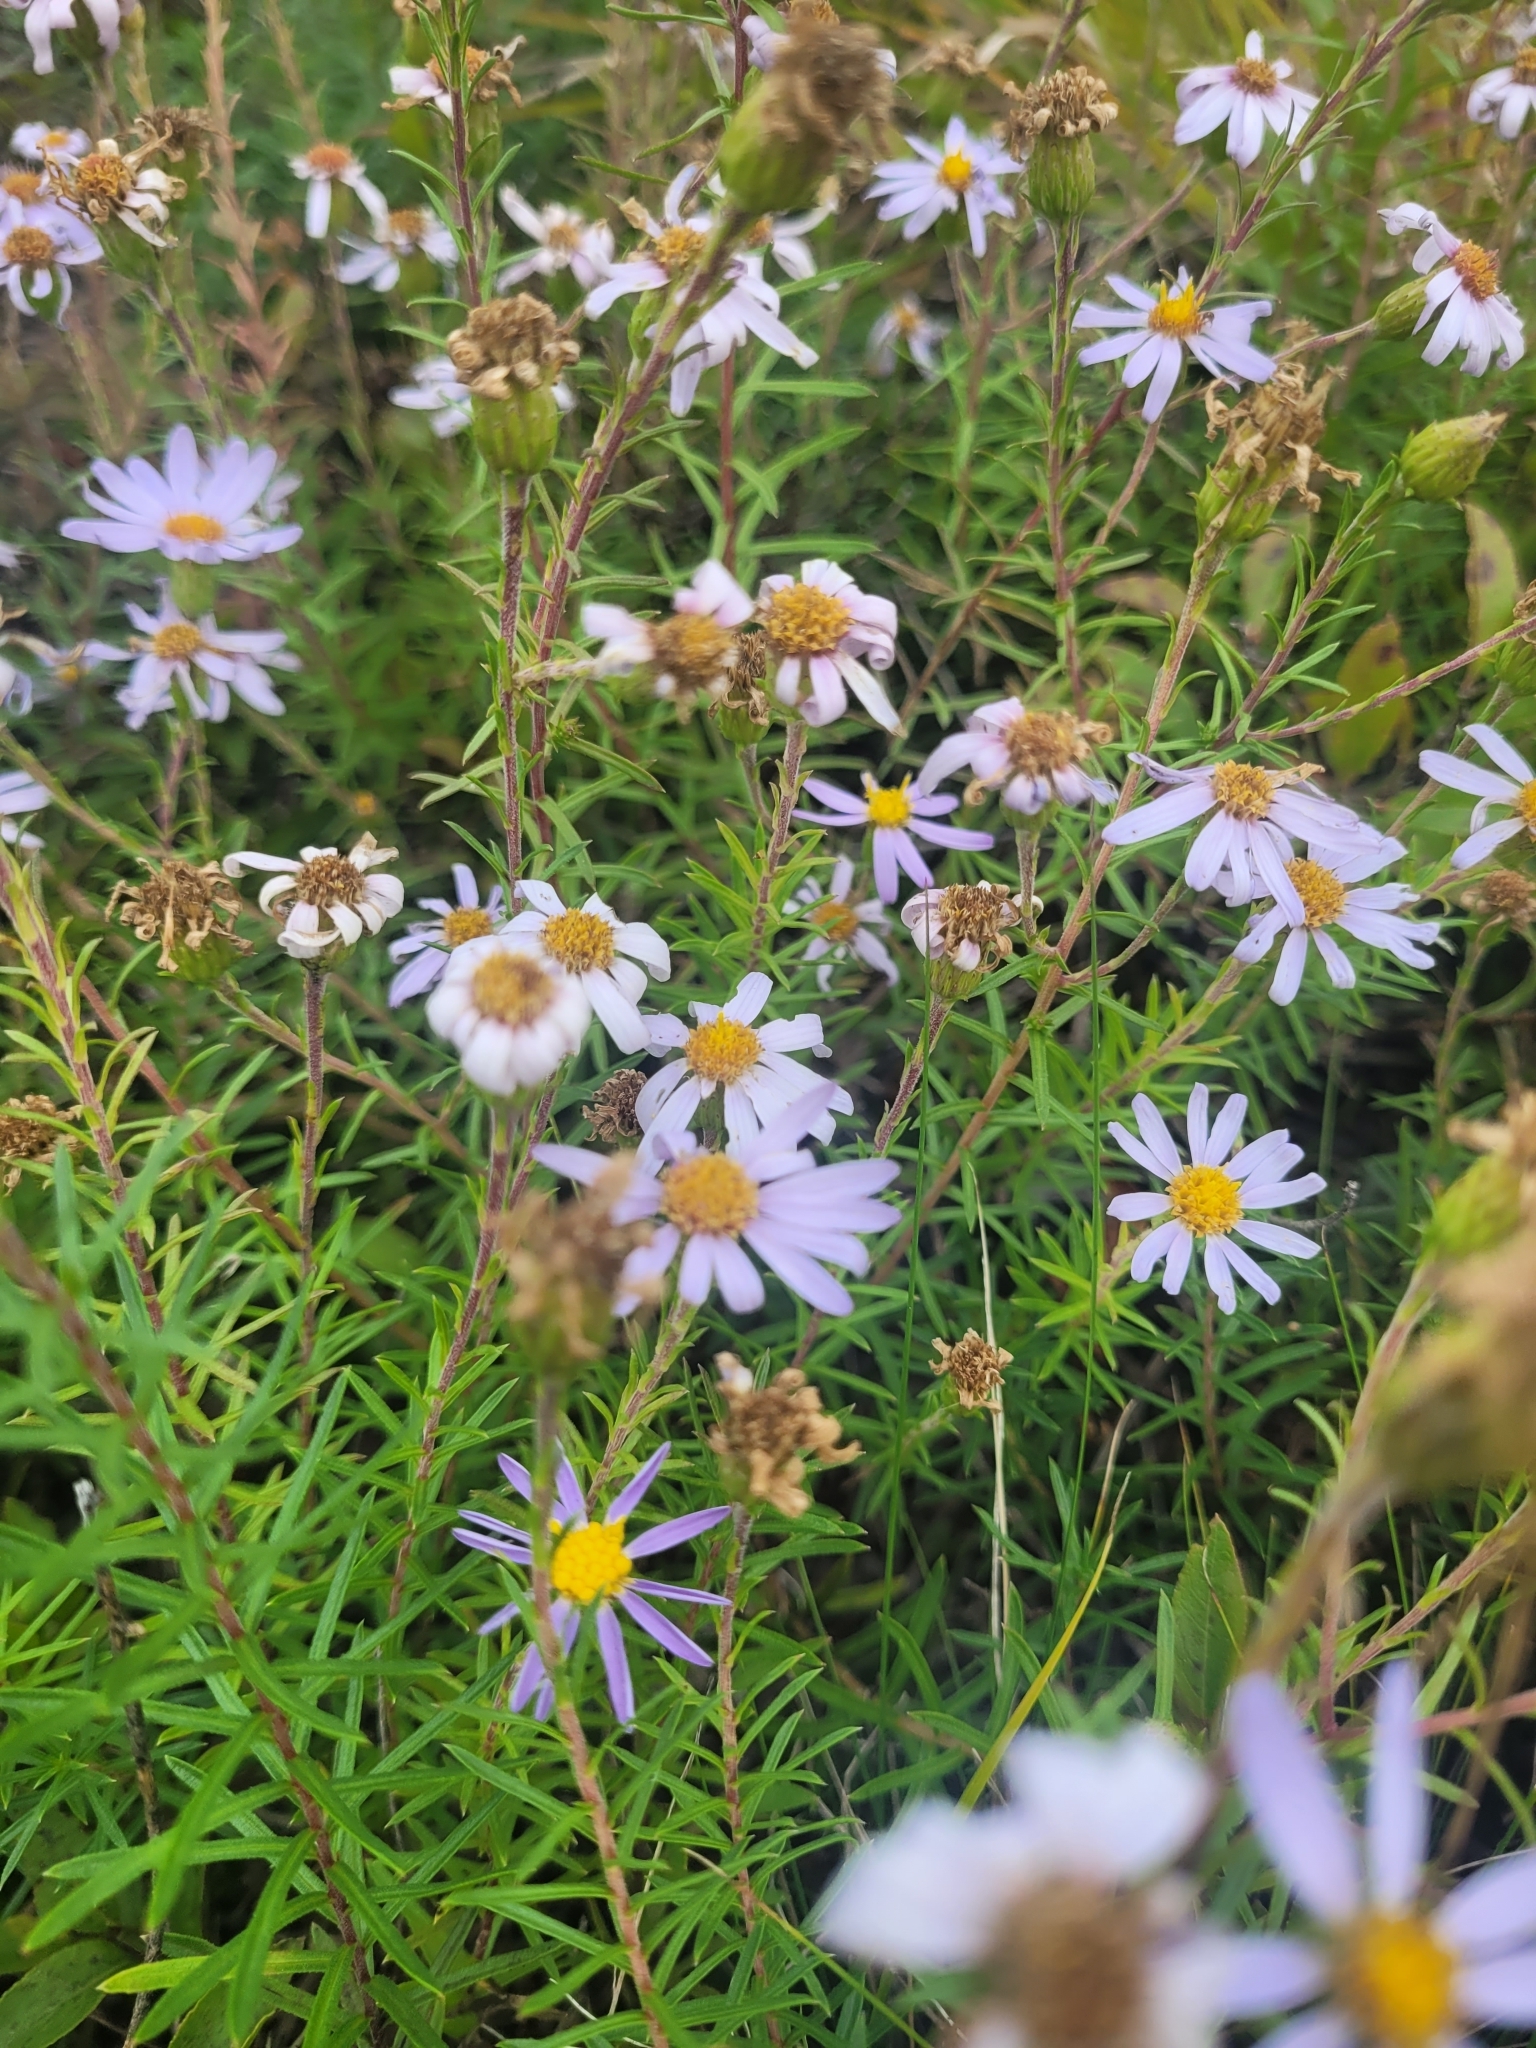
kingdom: Plantae
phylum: Tracheophyta
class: Magnoliopsida
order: Asterales
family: Asteraceae
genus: Ionactis
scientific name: Ionactis linariifolia
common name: Flax-leaf aster
